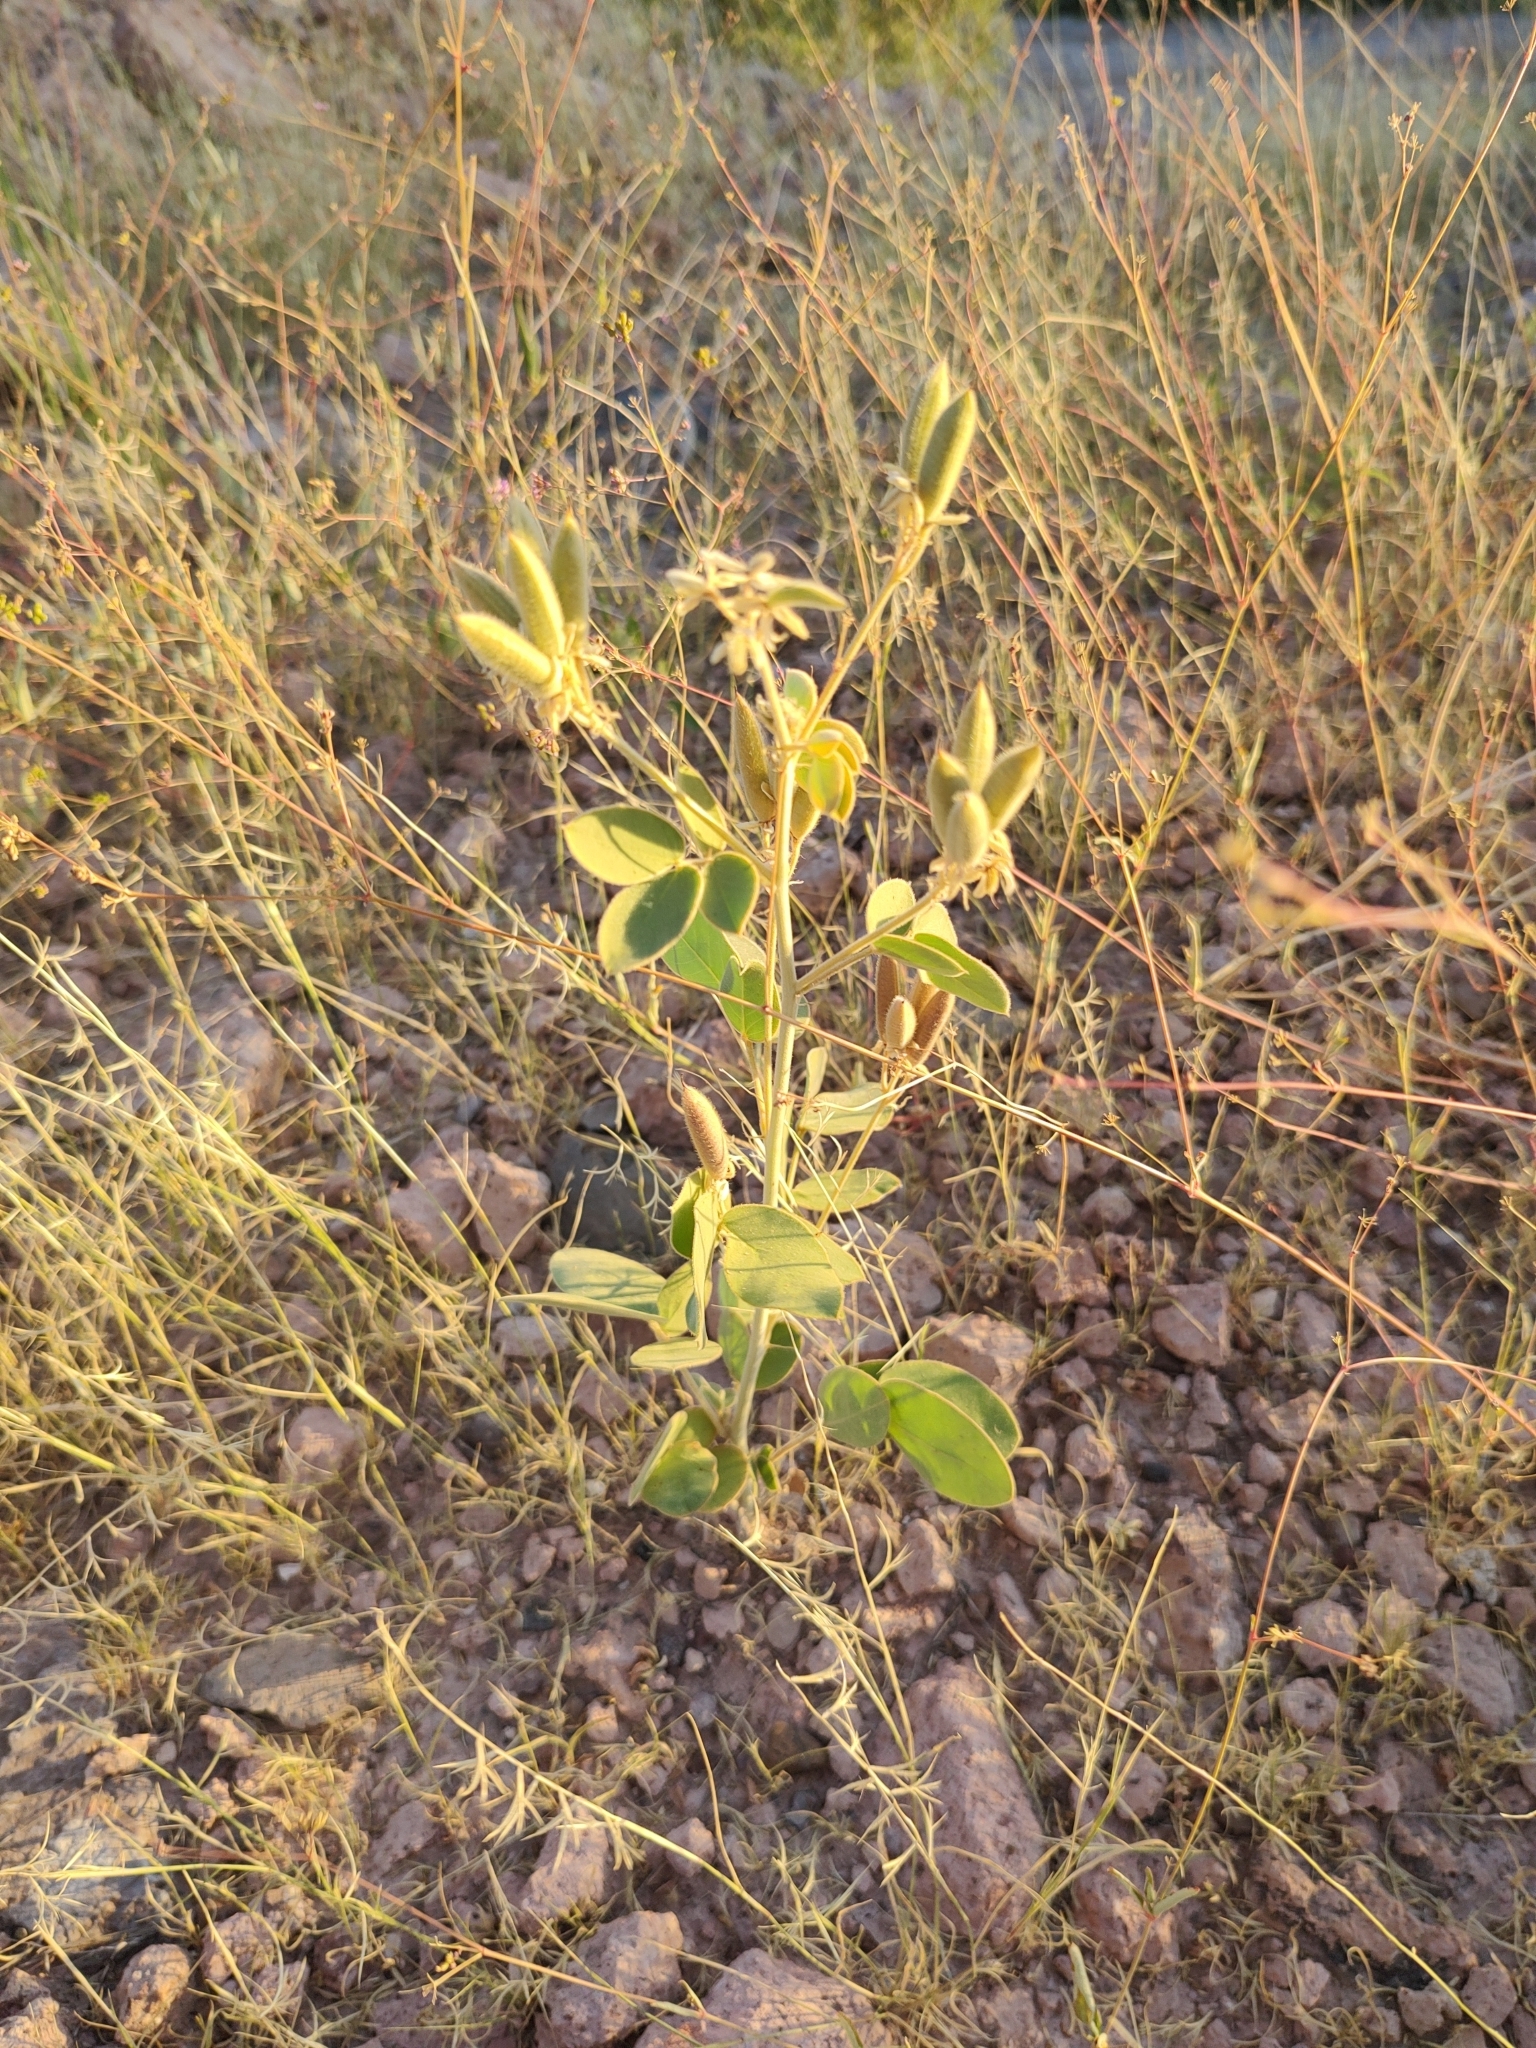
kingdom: Plantae
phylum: Tracheophyta
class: Magnoliopsida
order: Fabales
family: Fabaceae
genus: Senna
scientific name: Senna confinis
